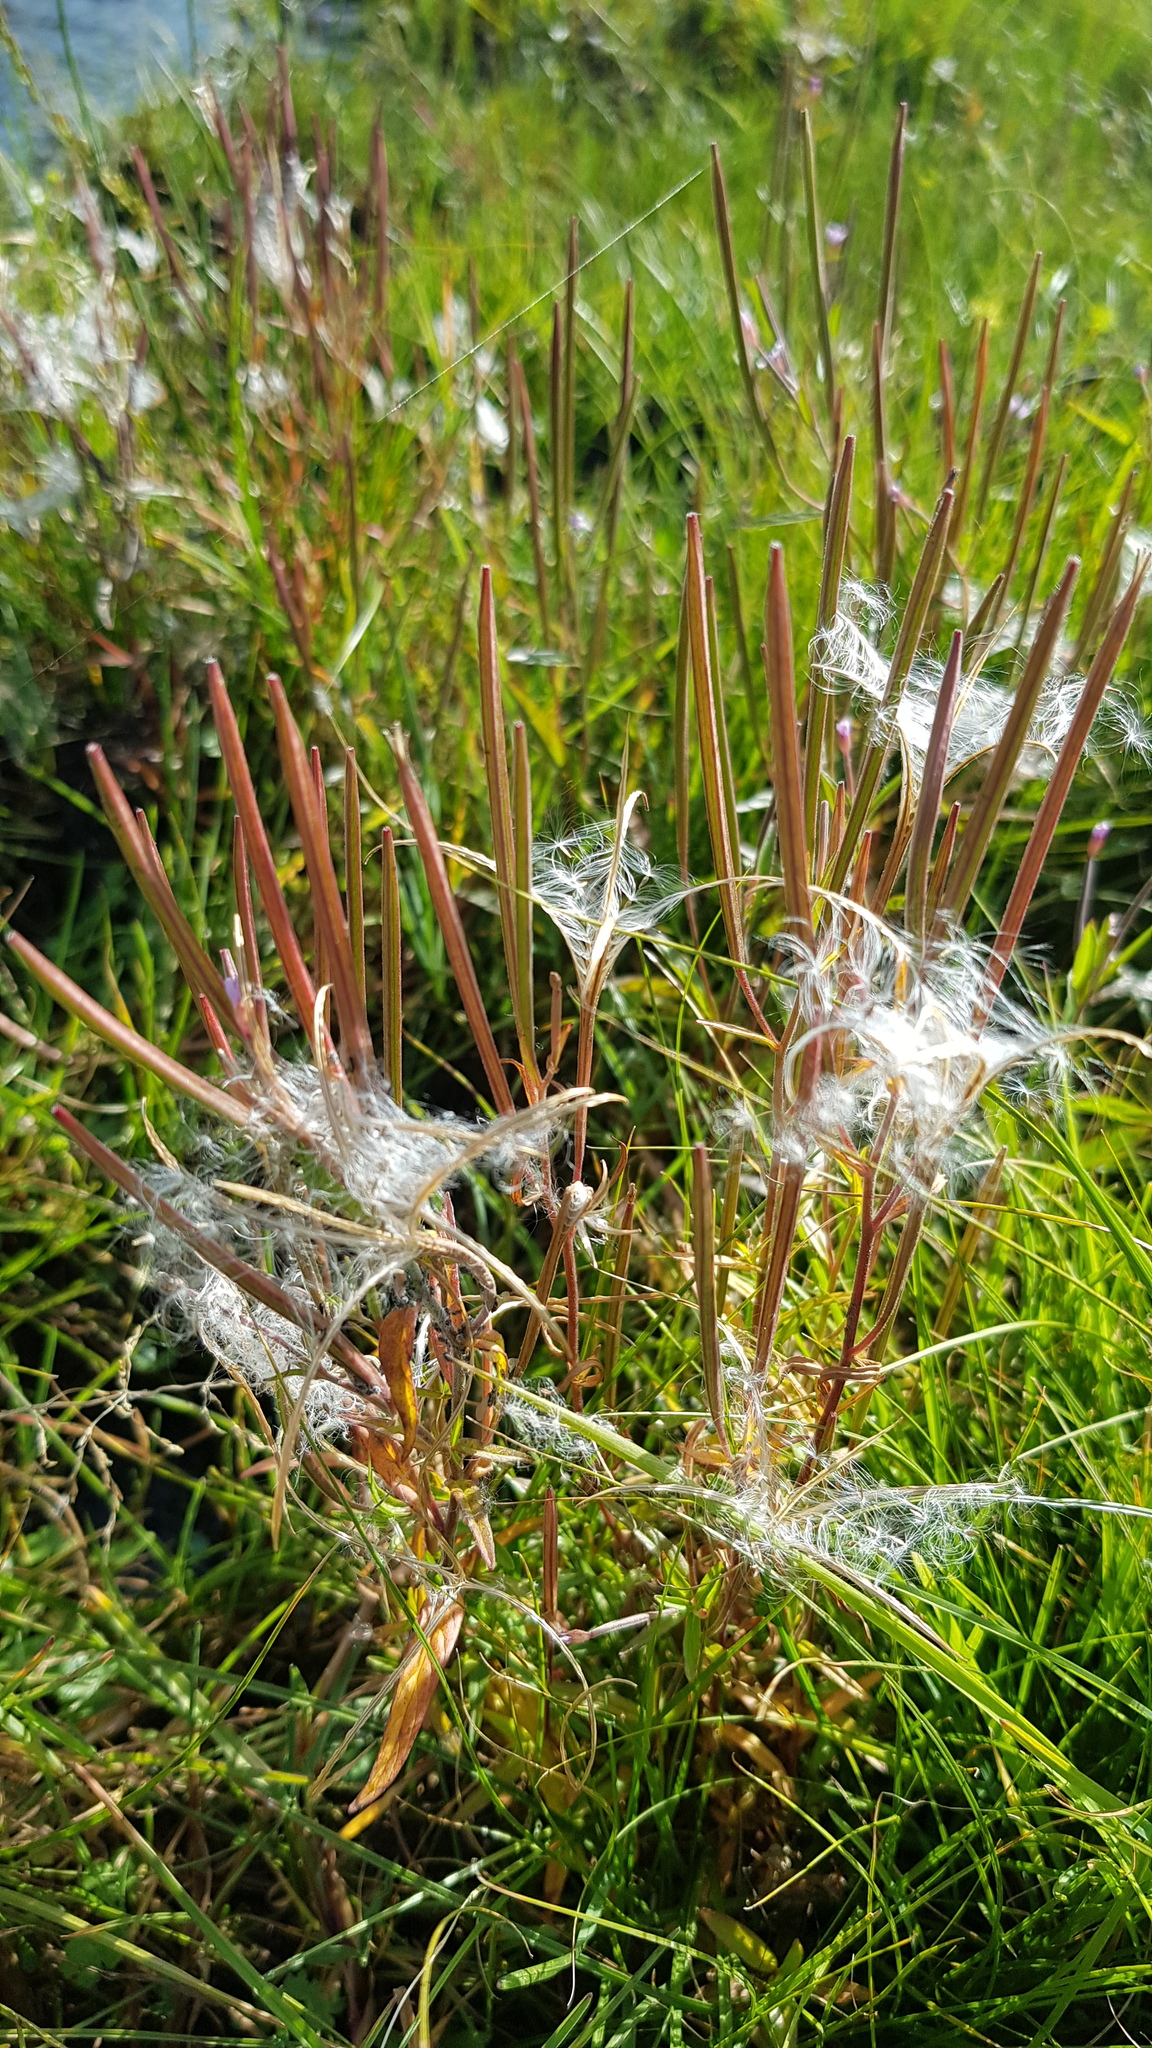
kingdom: Plantae
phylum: Tracheophyta
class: Magnoliopsida
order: Myrtales
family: Onagraceae
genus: Epilobium
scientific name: Epilobium palustre
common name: Marsh willowherb
